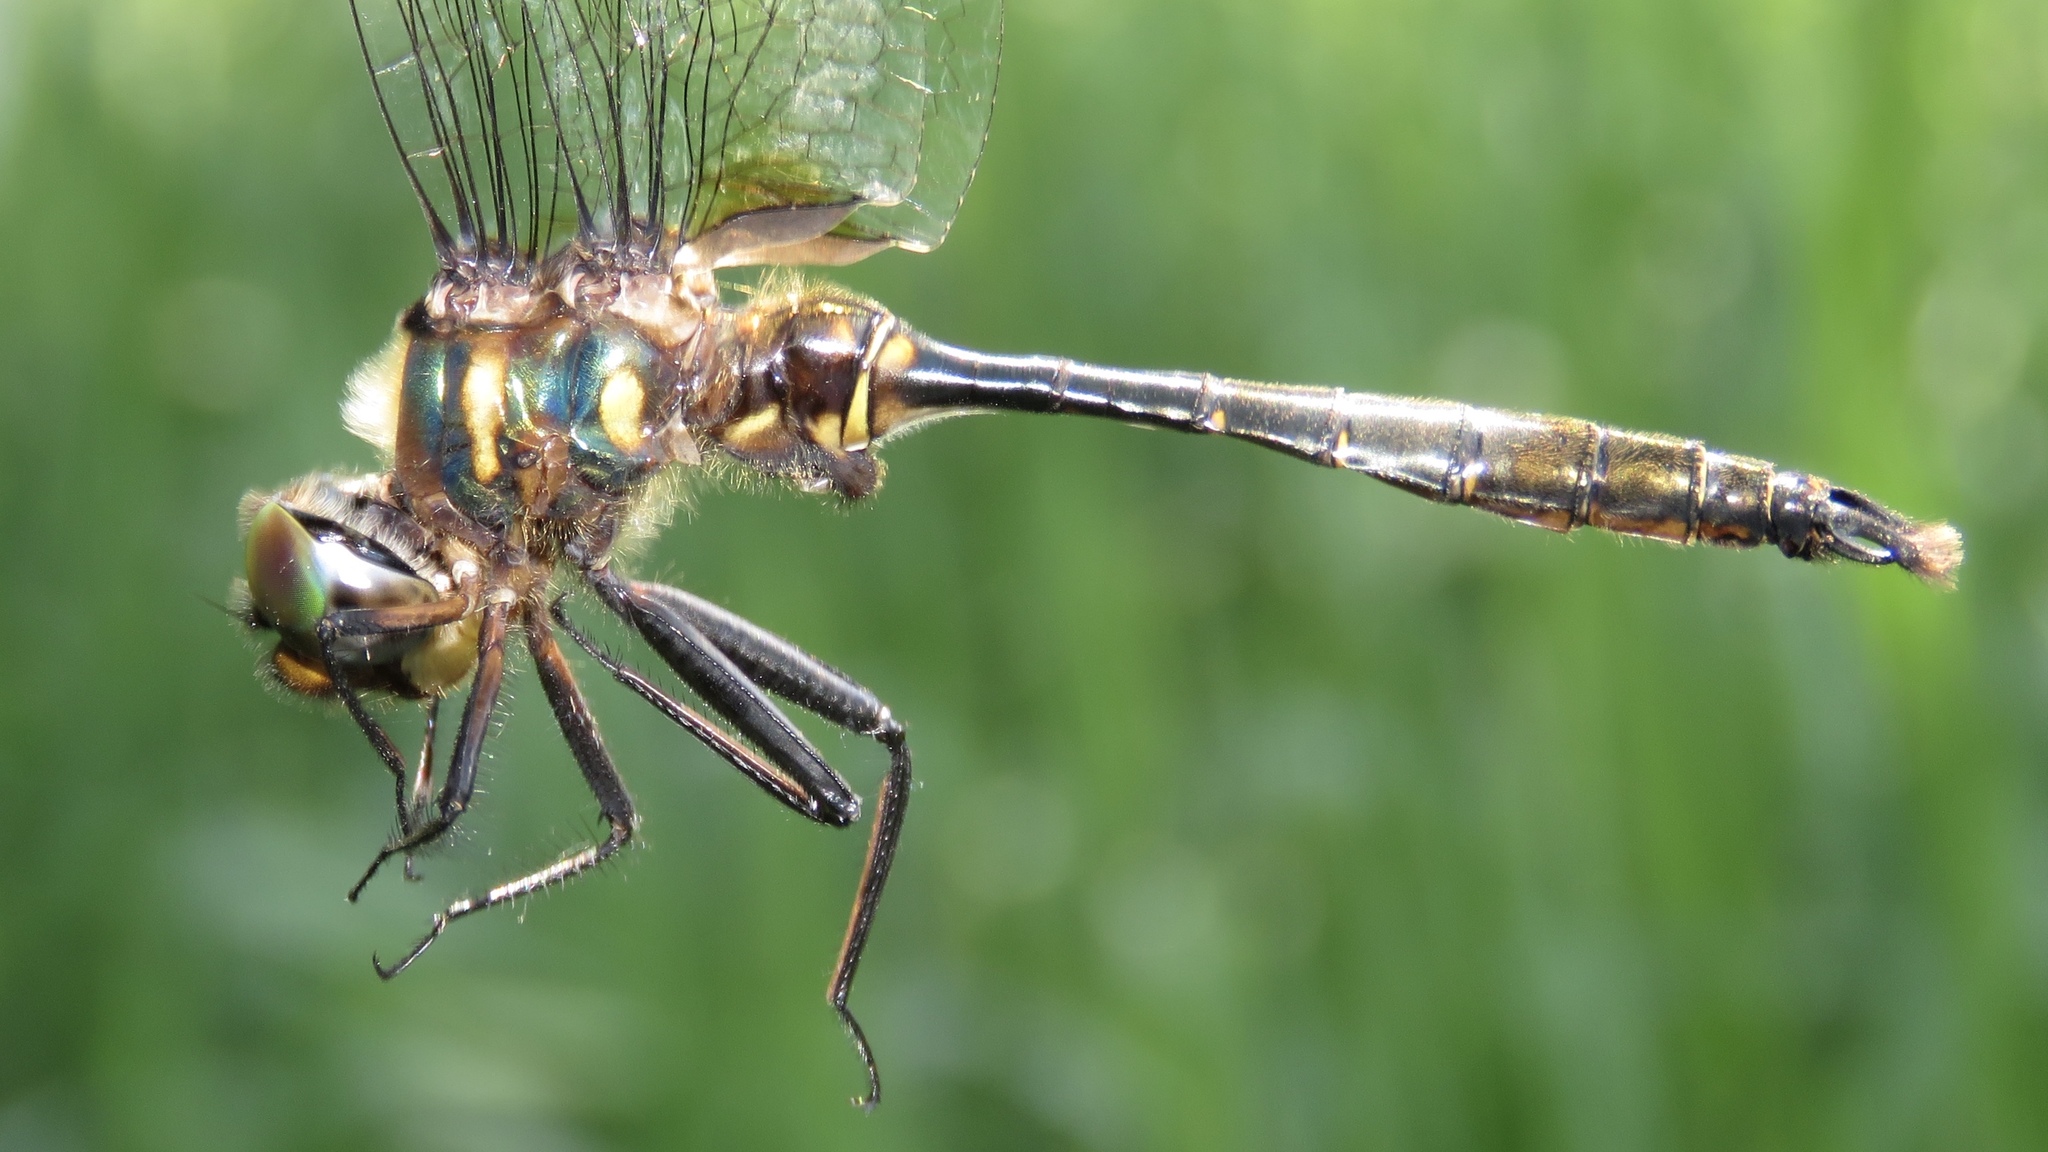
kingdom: Animalia
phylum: Arthropoda
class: Insecta
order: Odonata
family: Corduliidae
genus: Somatochlora
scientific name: Somatochlora walshii
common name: Brush-tipped emerald
